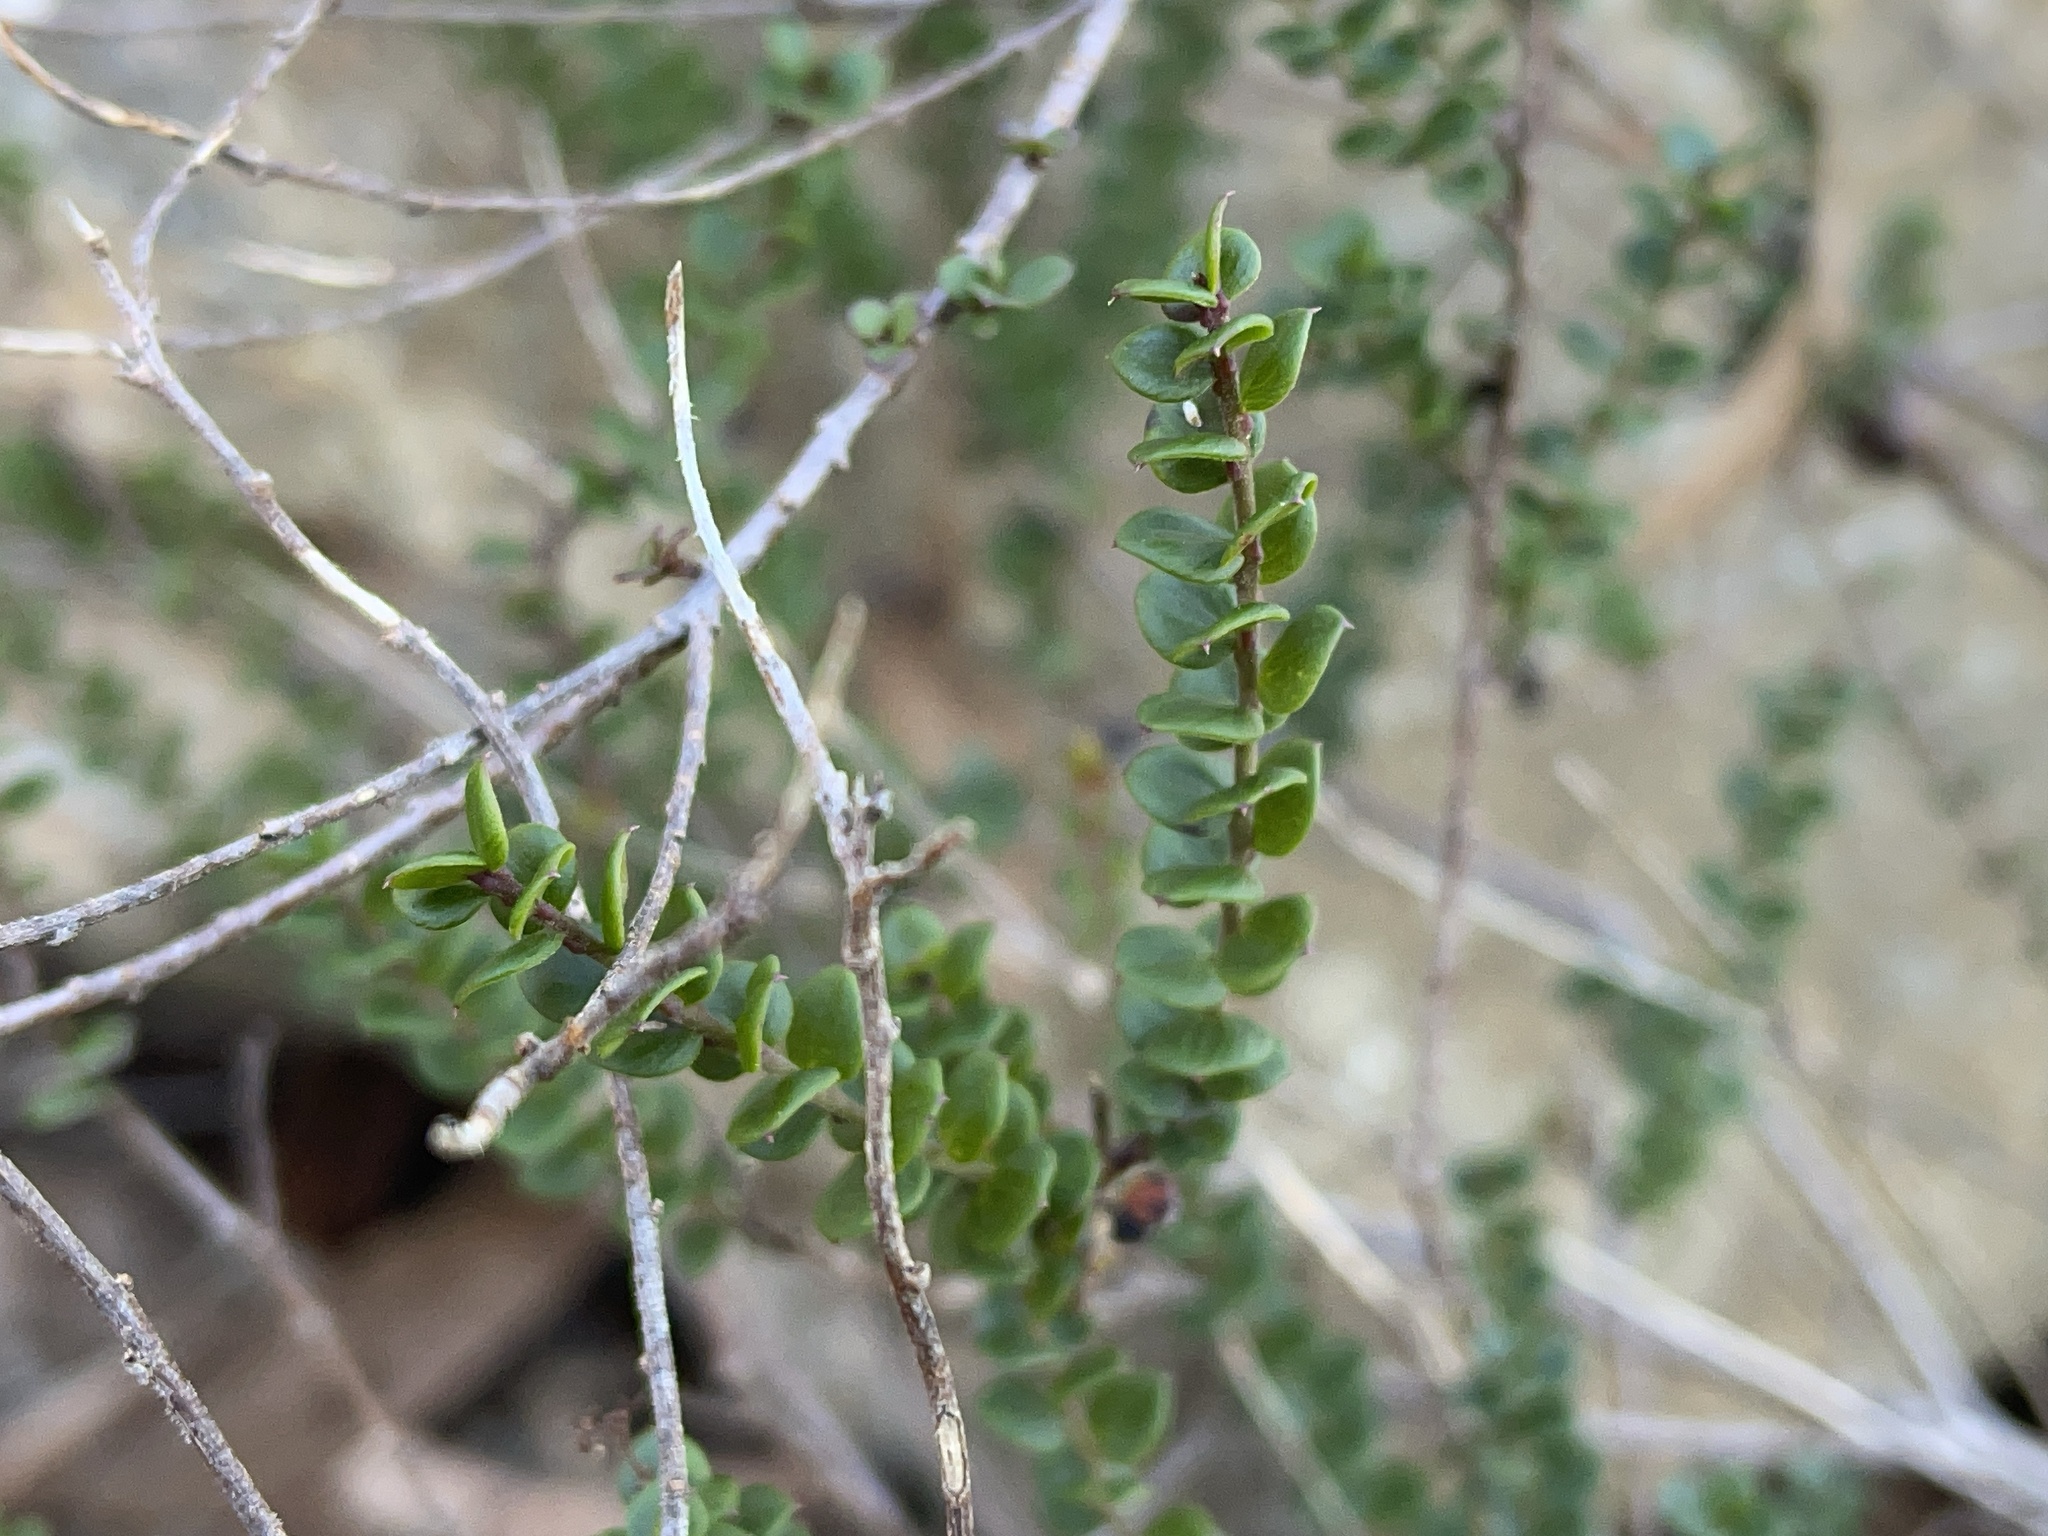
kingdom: Plantae
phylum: Tracheophyta
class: Magnoliopsida
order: Apiales
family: Apiaceae
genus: Platysace
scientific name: Platysace lanceolata
